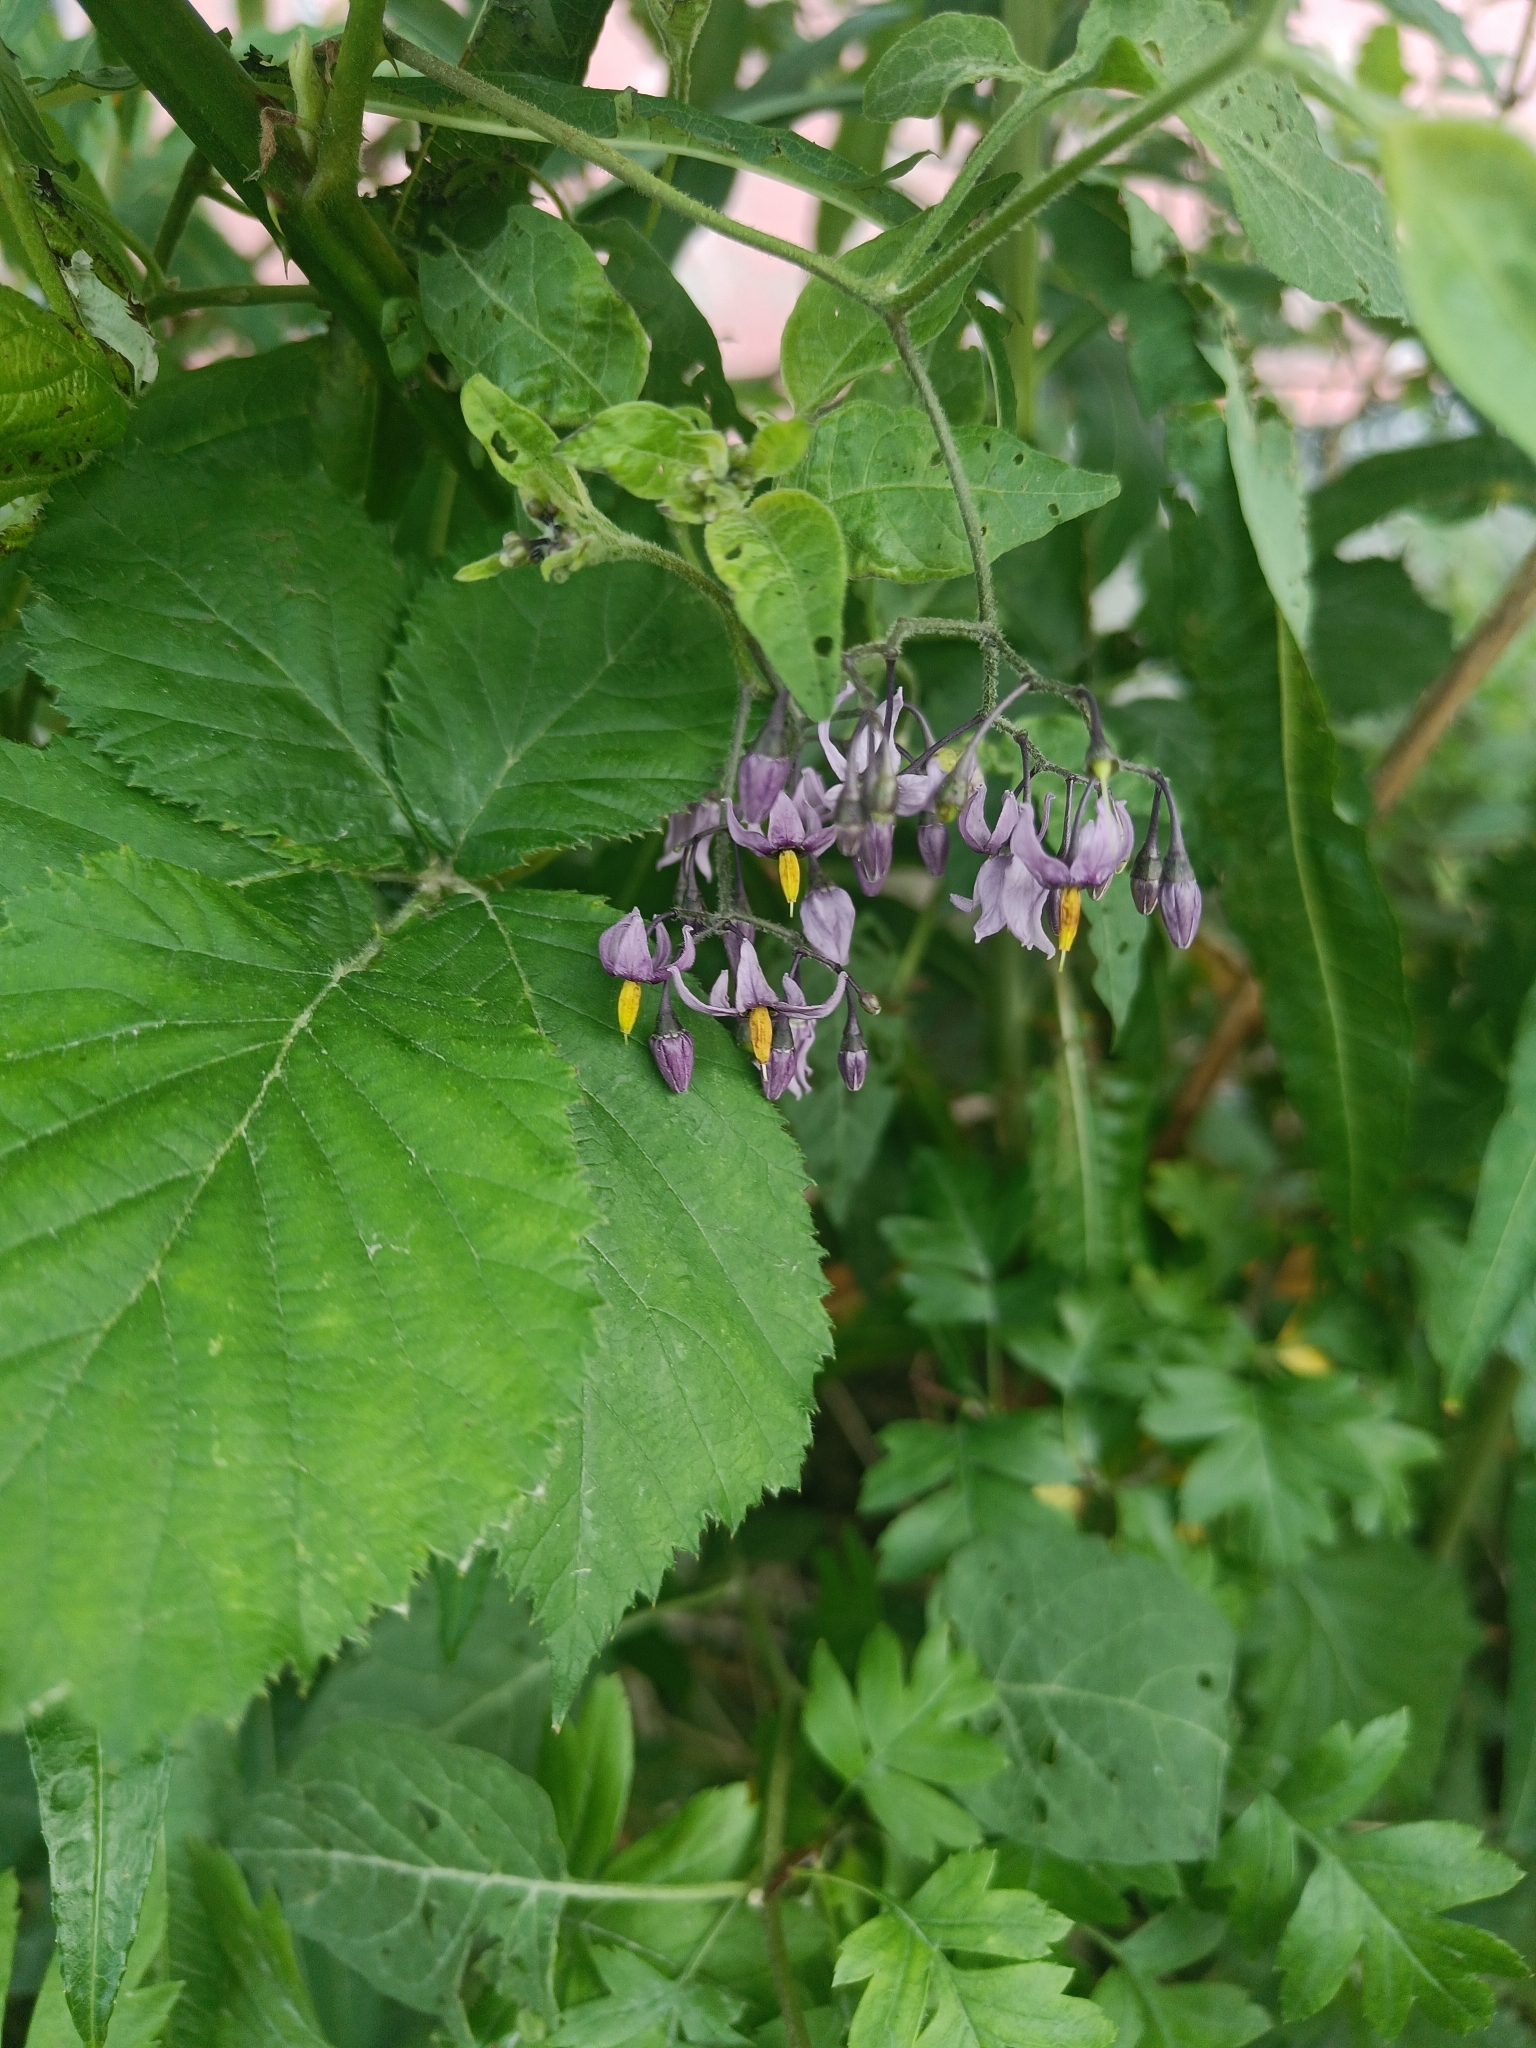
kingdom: Plantae
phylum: Tracheophyta
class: Magnoliopsida
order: Solanales
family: Solanaceae
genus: Solanum
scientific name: Solanum dulcamara
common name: Climbing nightshade
